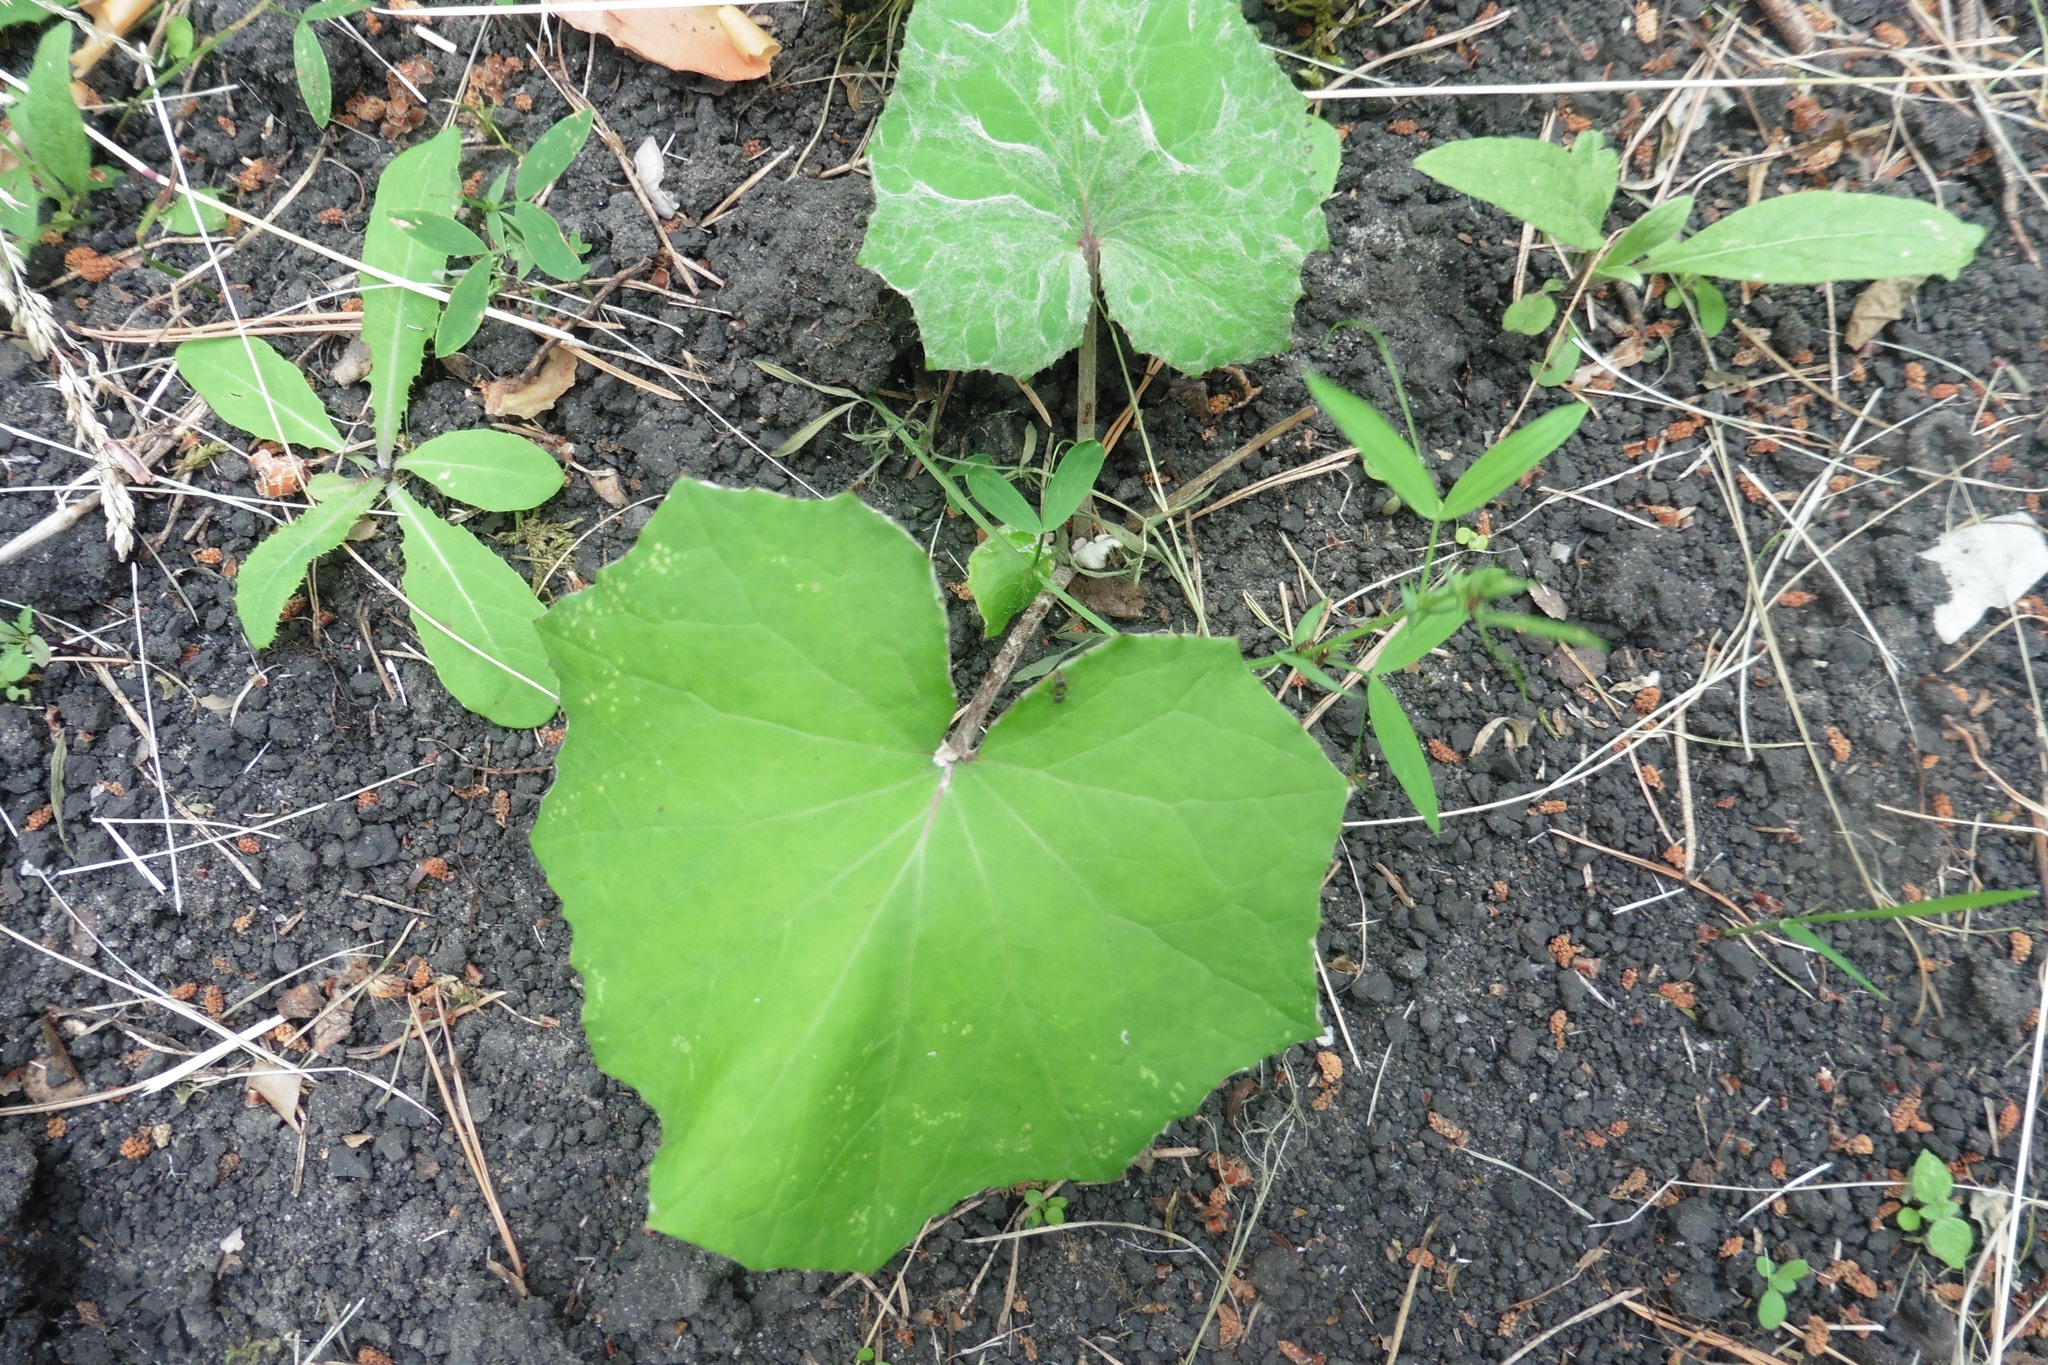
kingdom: Plantae
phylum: Tracheophyta
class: Magnoliopsida
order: Asterales
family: Asteraceae
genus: Tussilago
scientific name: Tussilago farfara
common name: Coltsfoot
